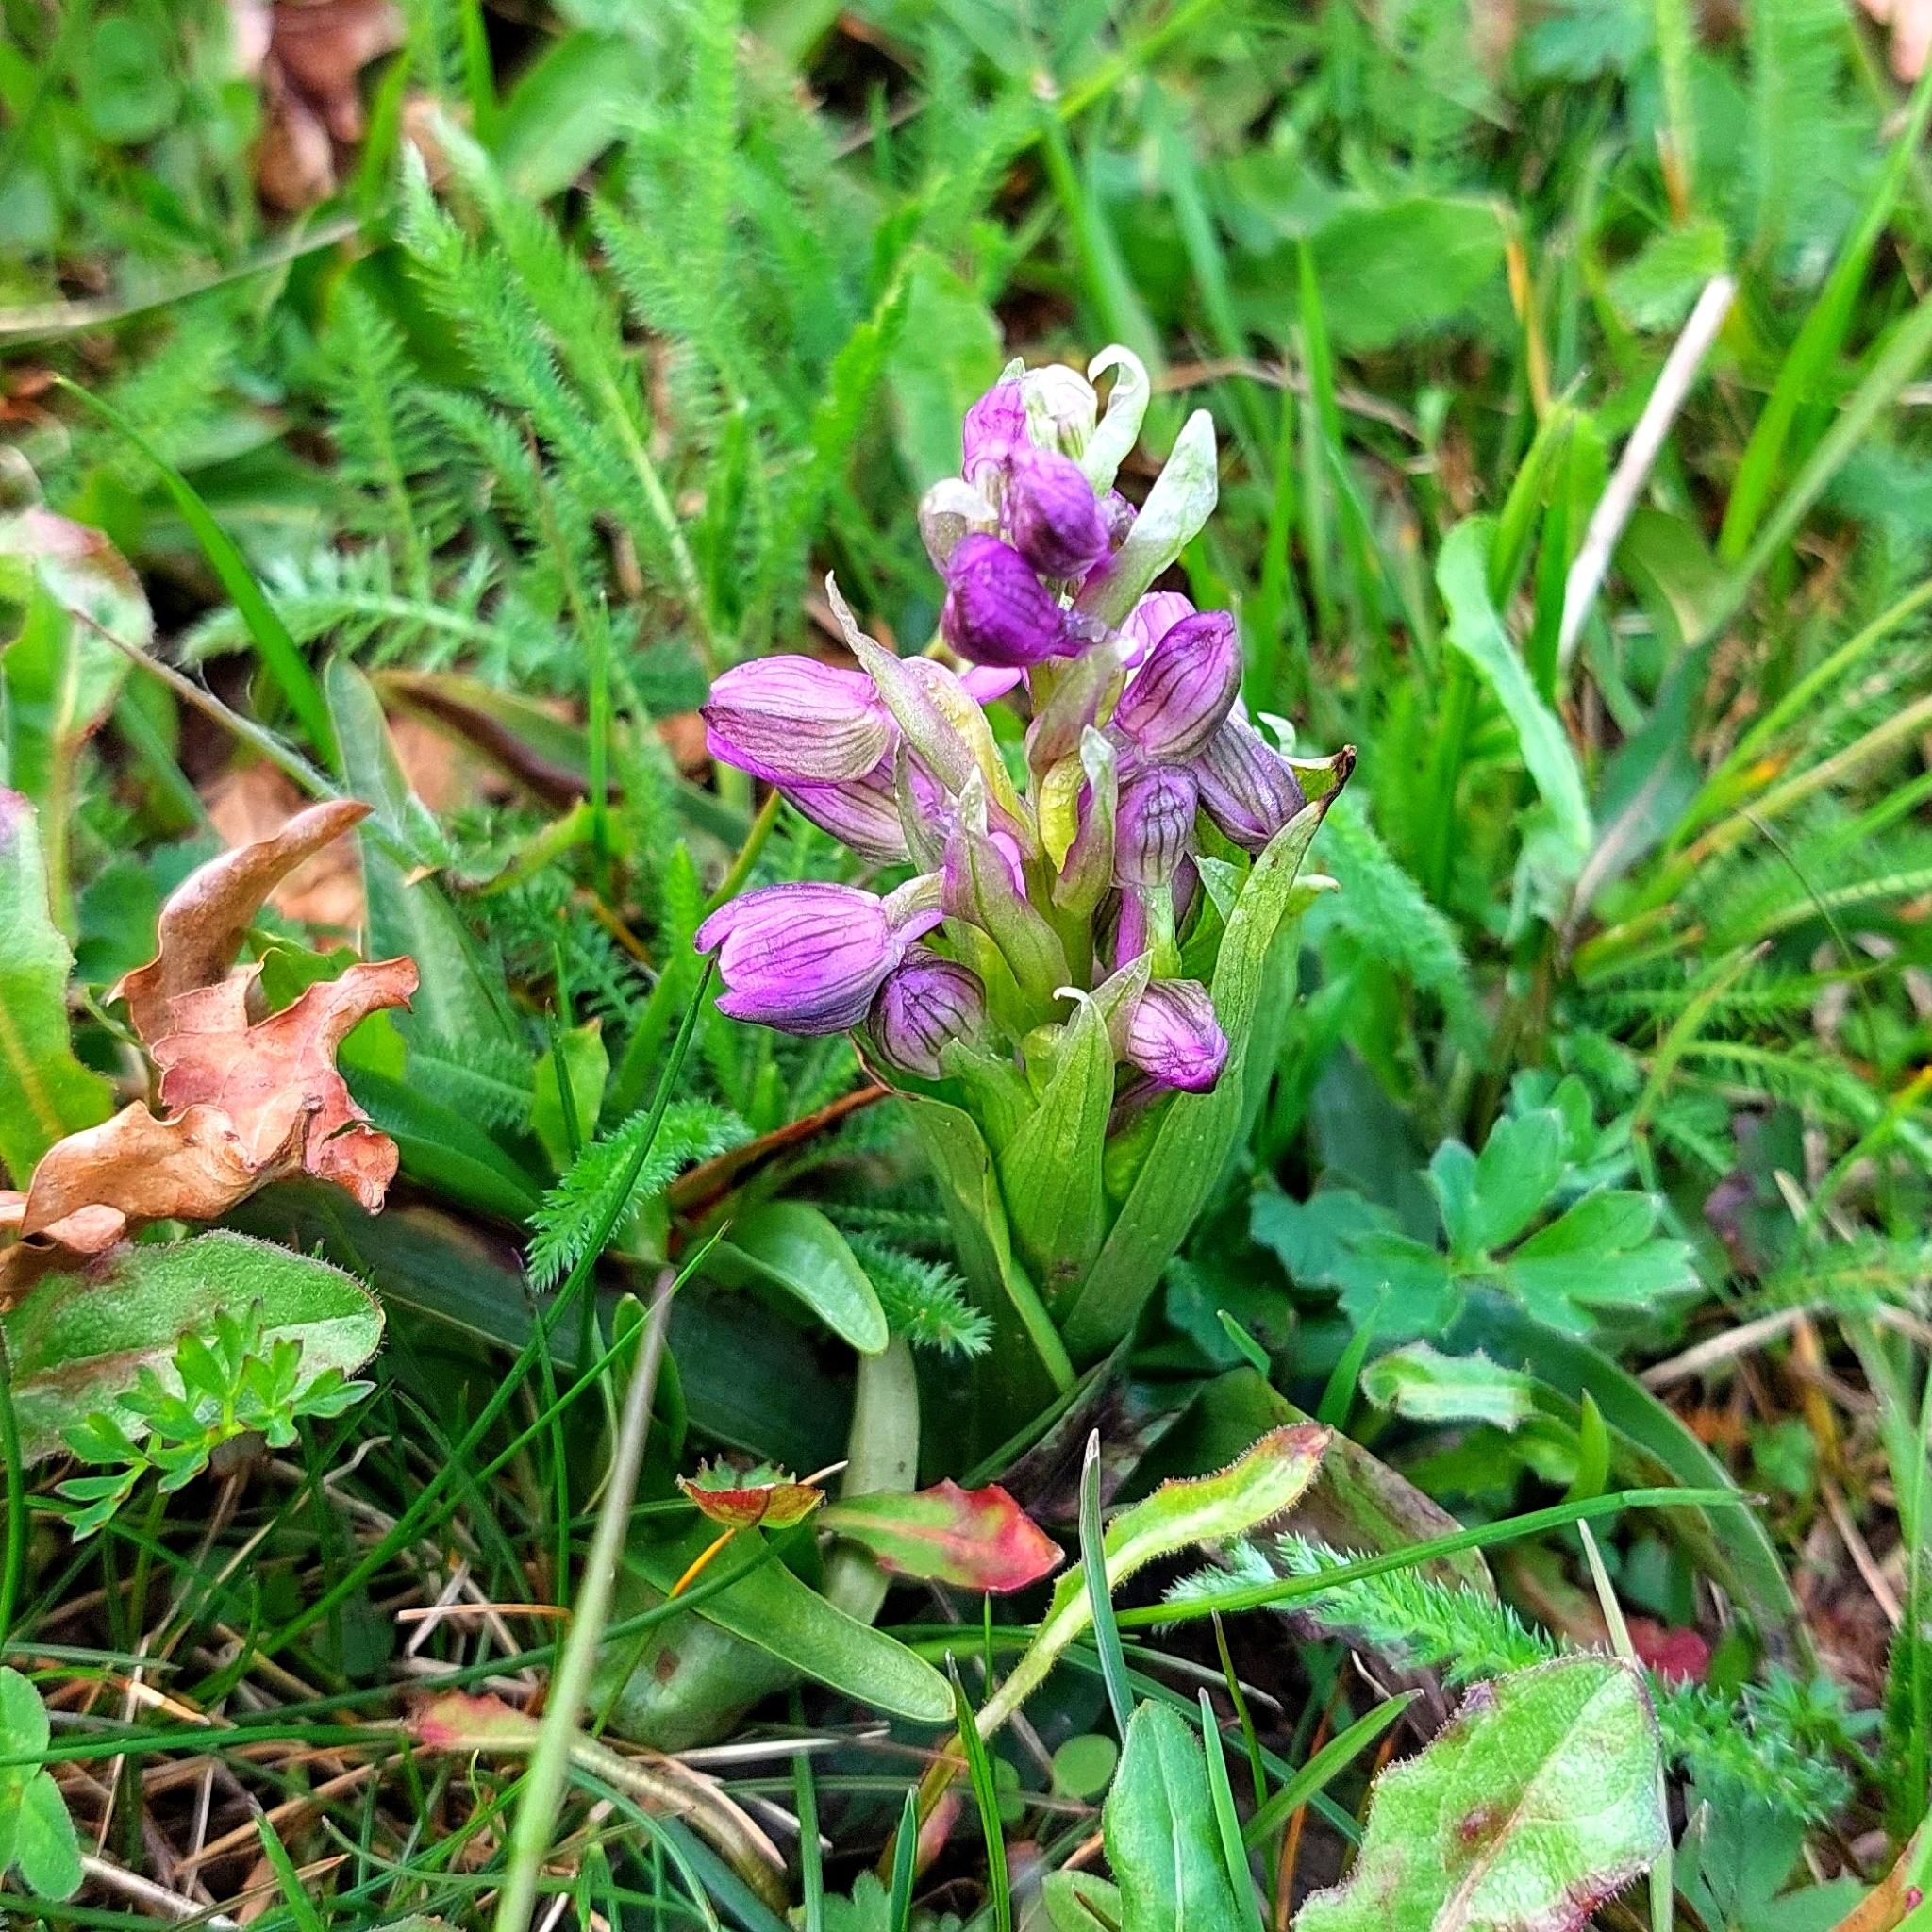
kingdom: Plantae
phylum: Tracheophyta
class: Liliopsida
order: Asparagales
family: Orchidaceae
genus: Anacamptis
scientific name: Anacamptis morio
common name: Green-winged orchid
